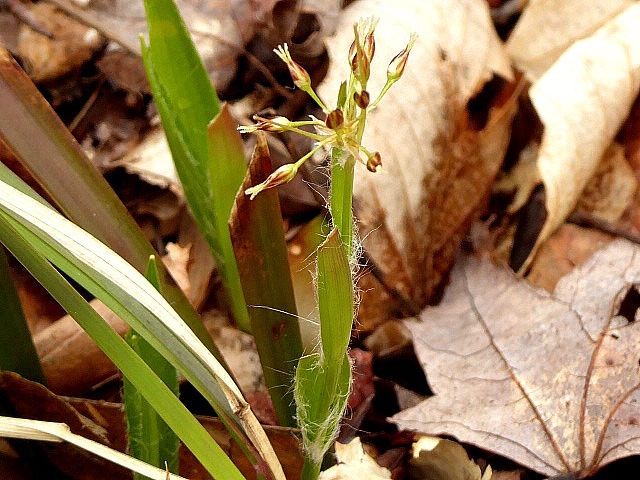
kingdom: Plantae
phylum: Tracheophyta
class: Liliopsida
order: Poales
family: Juncaceae
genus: Luzula
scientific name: Luzula acuminata
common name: Hairy woodrush
